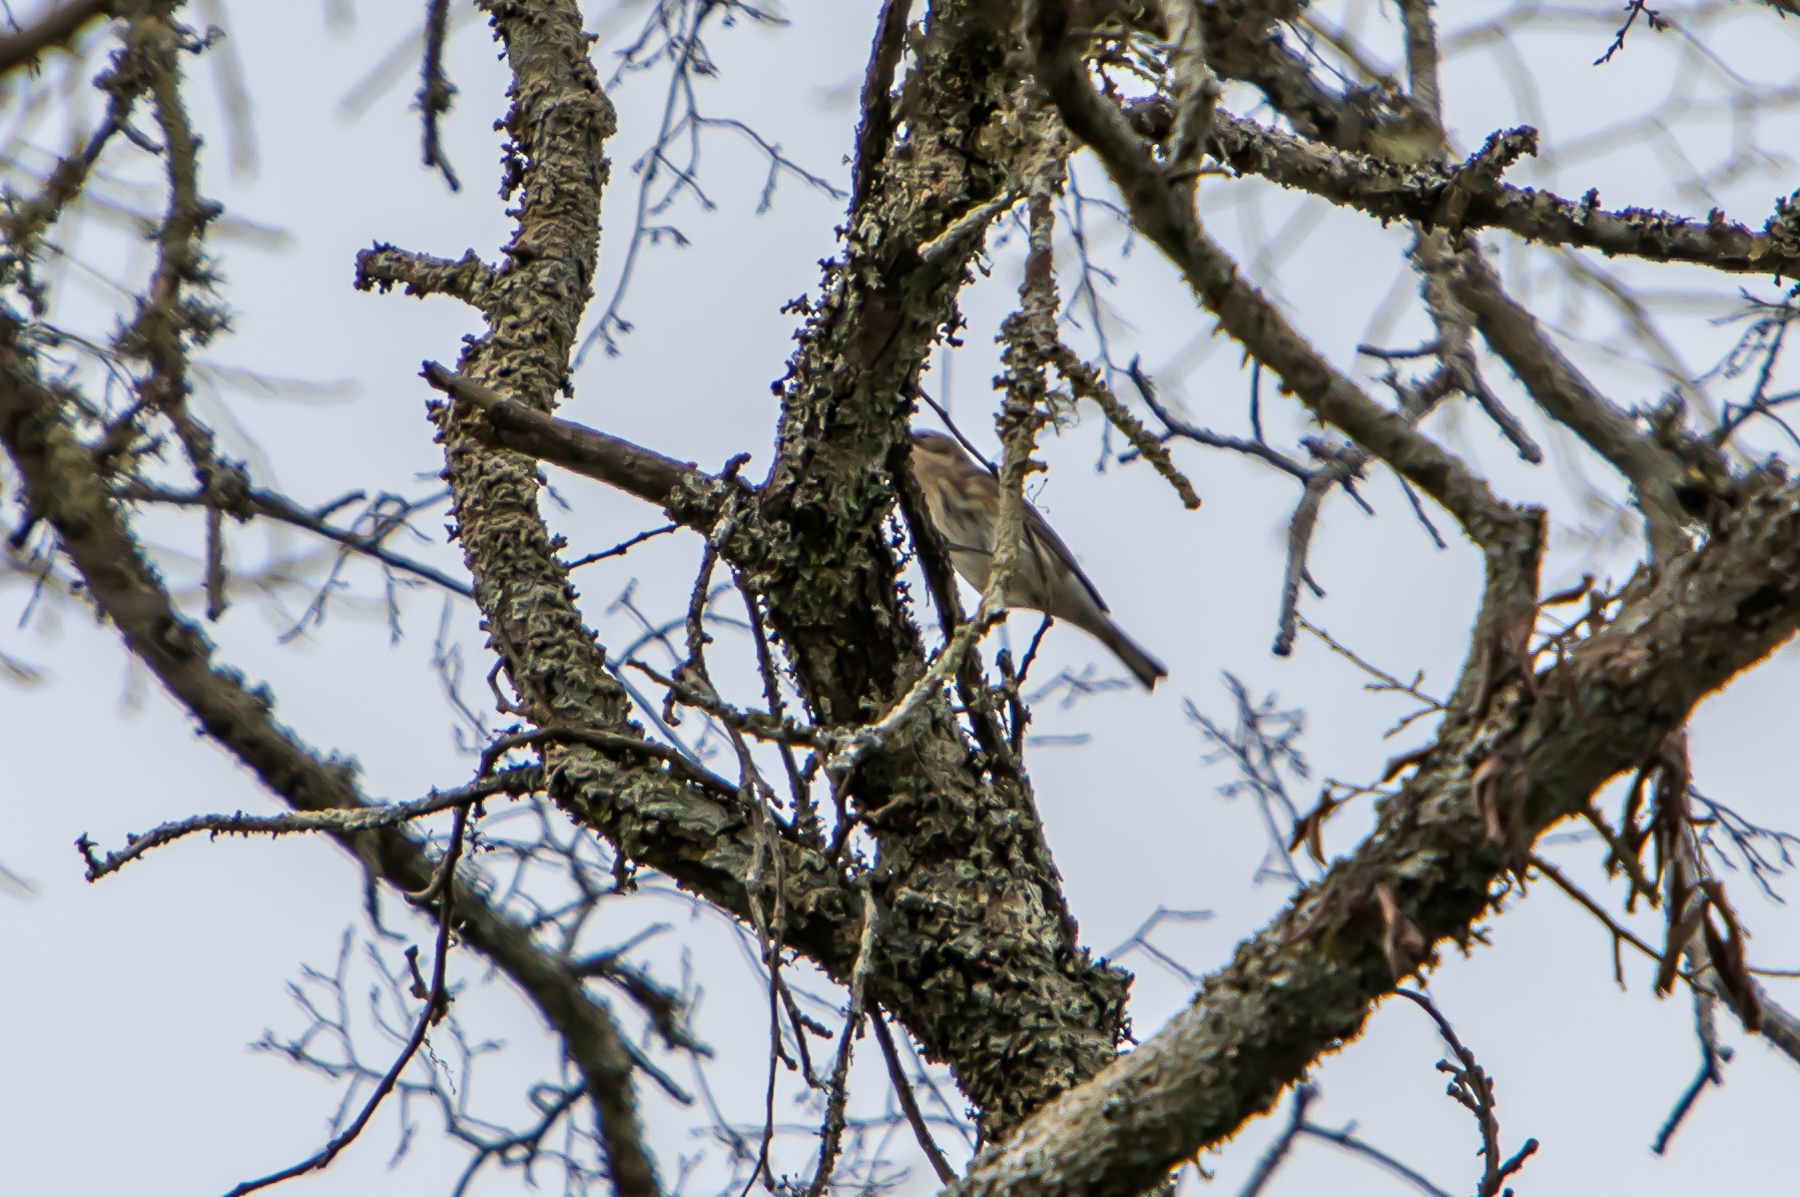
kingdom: Animalia
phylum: Chordata
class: Aves
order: Passeriformes
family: Parulidae
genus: Setophaga
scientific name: Setophaga coronata
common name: Myrtle warbler
